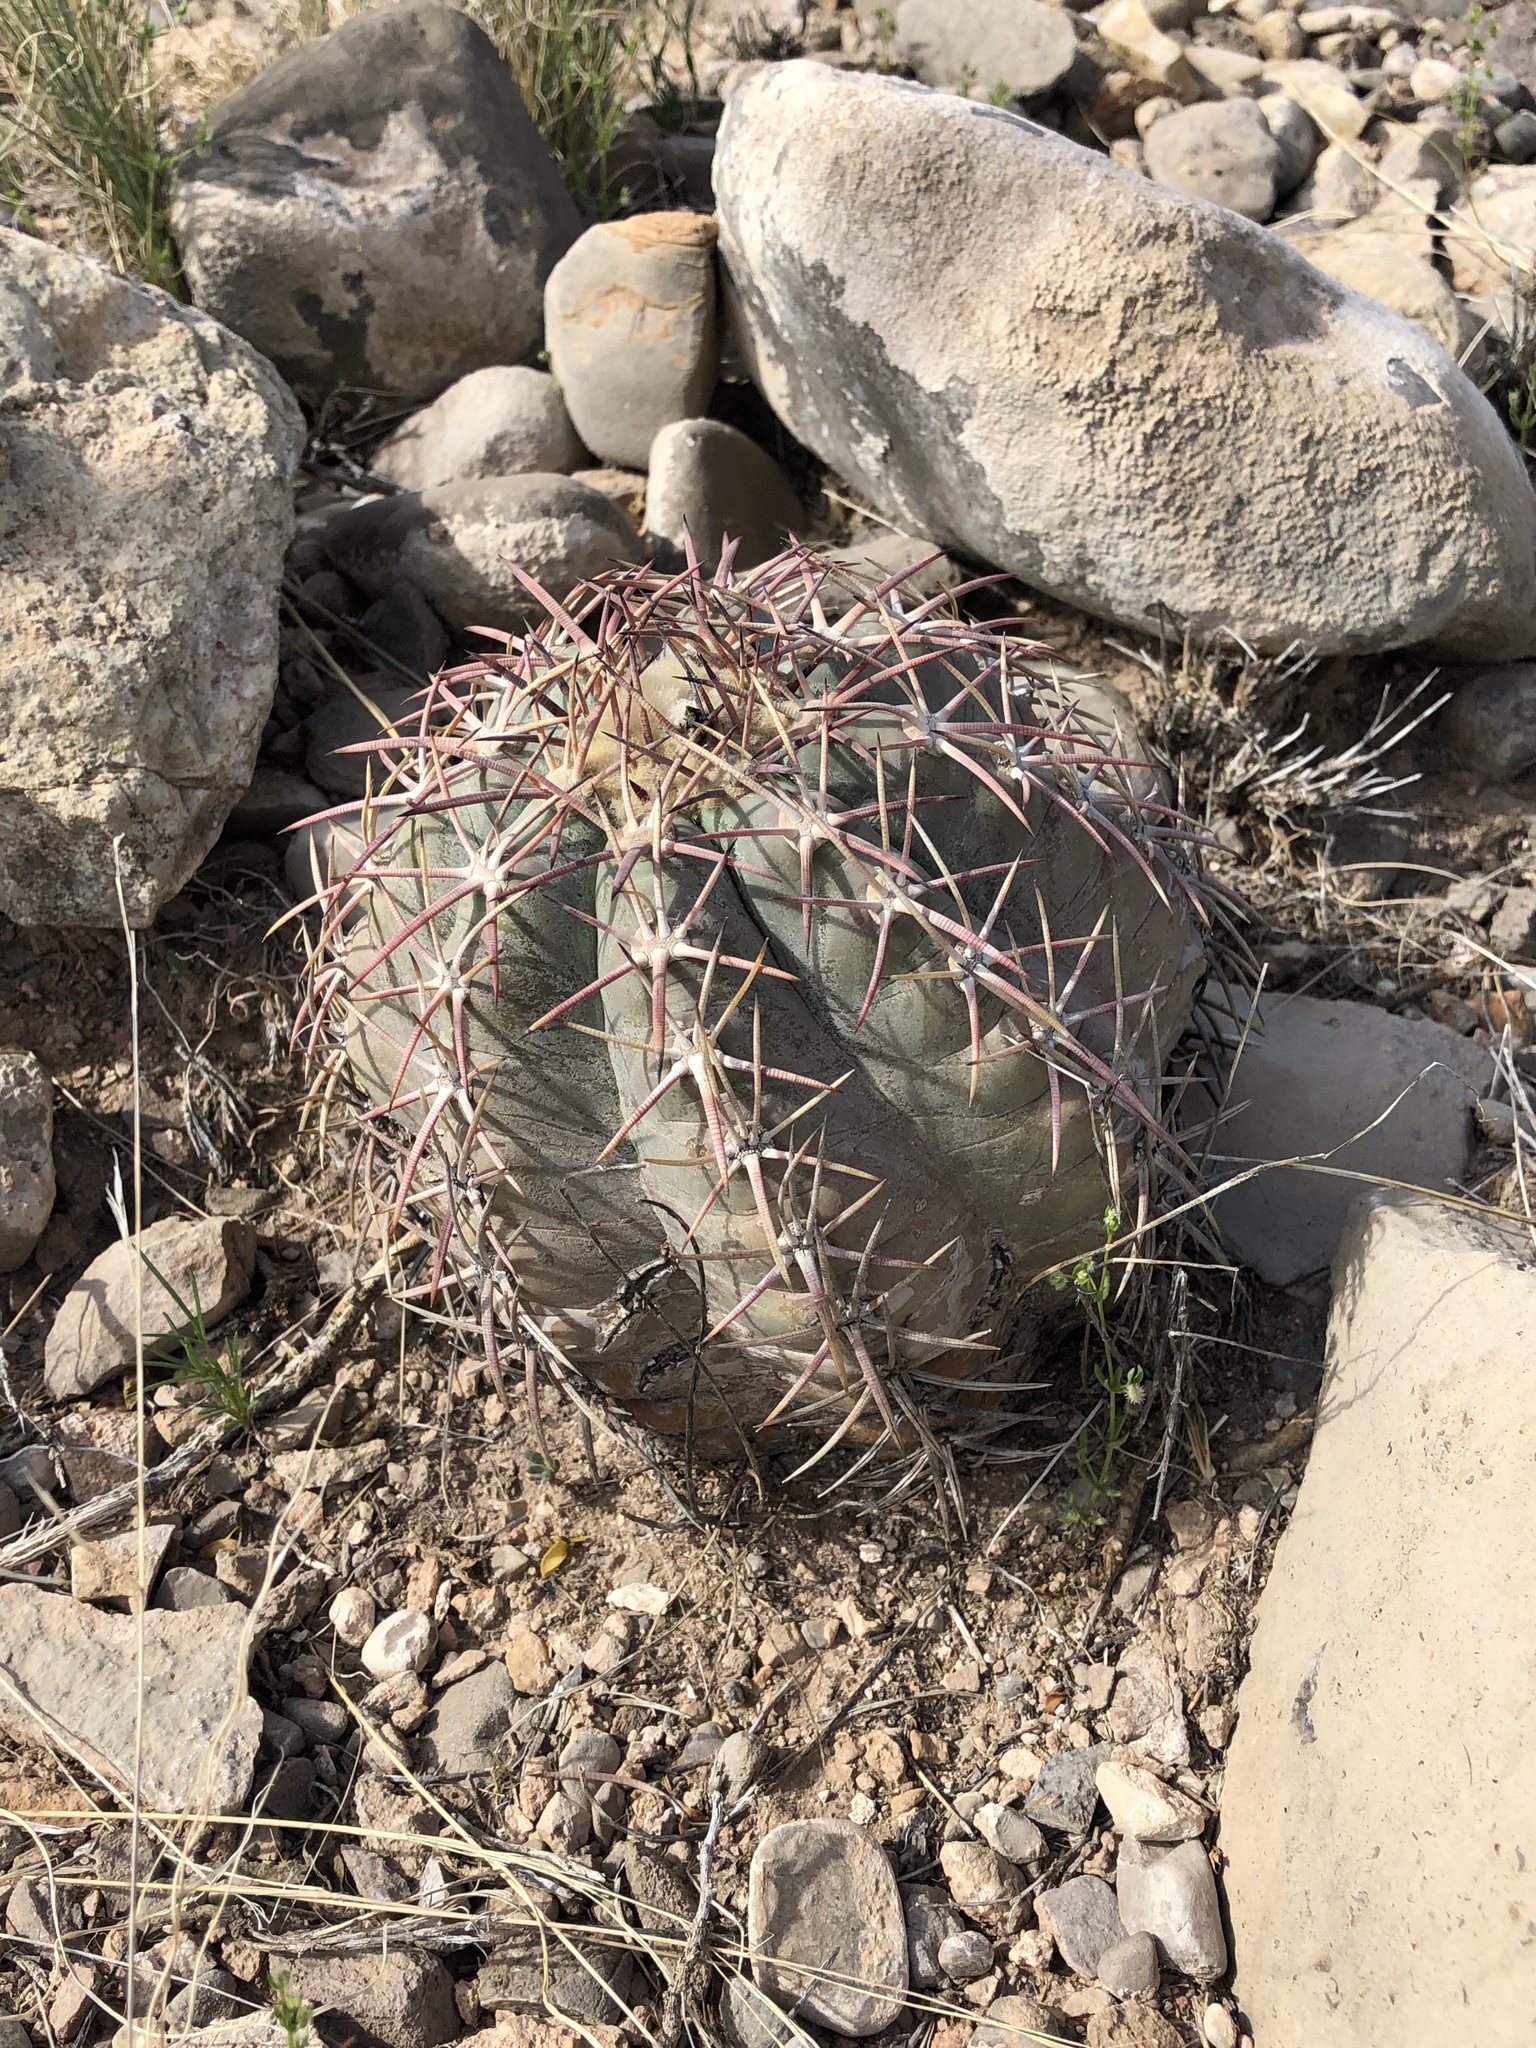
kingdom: Plantae
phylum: Tracheophyta
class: Magnoliopsida
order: Caryophyllales
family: Cactaceae
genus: Echinocactus
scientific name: Echinocactus horizonthalonius
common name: Devilshead
